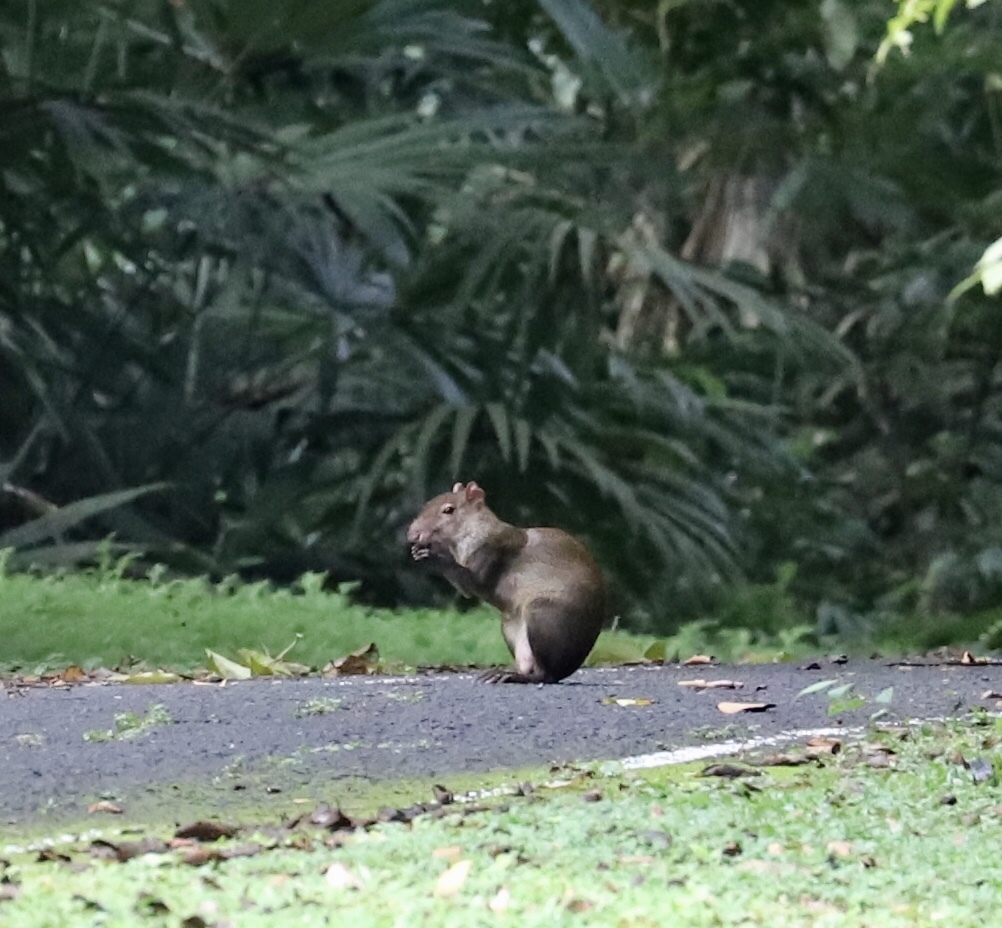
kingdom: Animalia
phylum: Chordata
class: Mammalia
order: Rodentia
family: Dasyproctidae
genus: Dasyprocta
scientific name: Dasyprocta punctata
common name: Central american agouti
